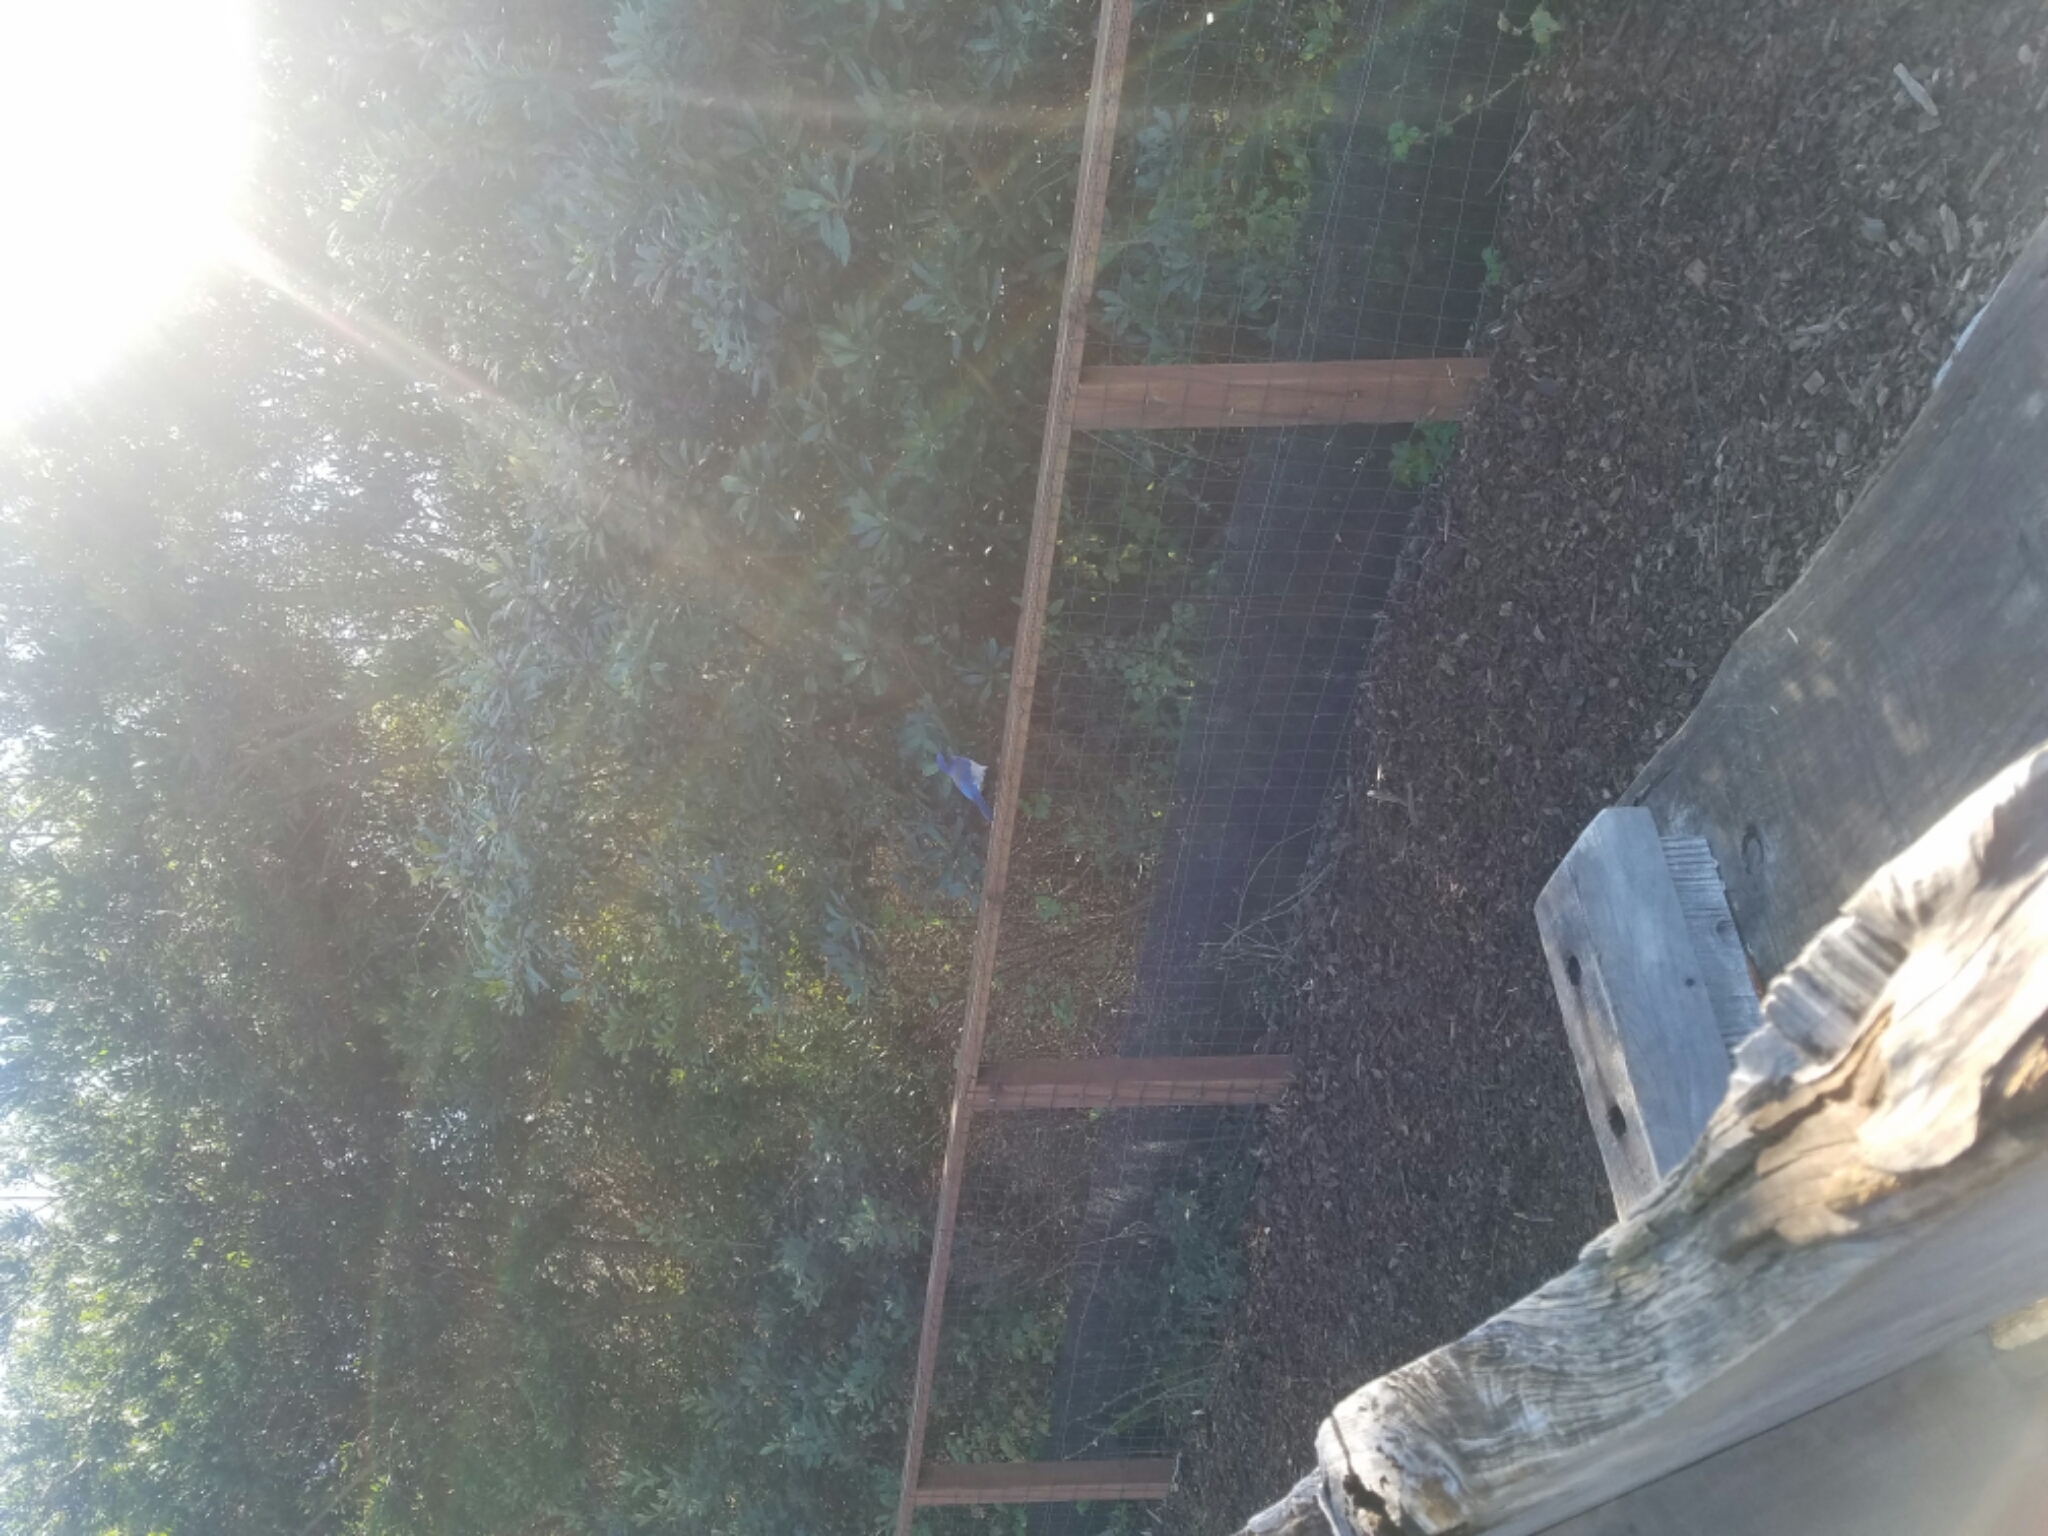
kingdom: Animalia
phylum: Chordata
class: Aves
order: Passeriformes
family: Corvidae
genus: Aphelocoma
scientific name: Aphelocoma californica
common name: California scrub-jay
